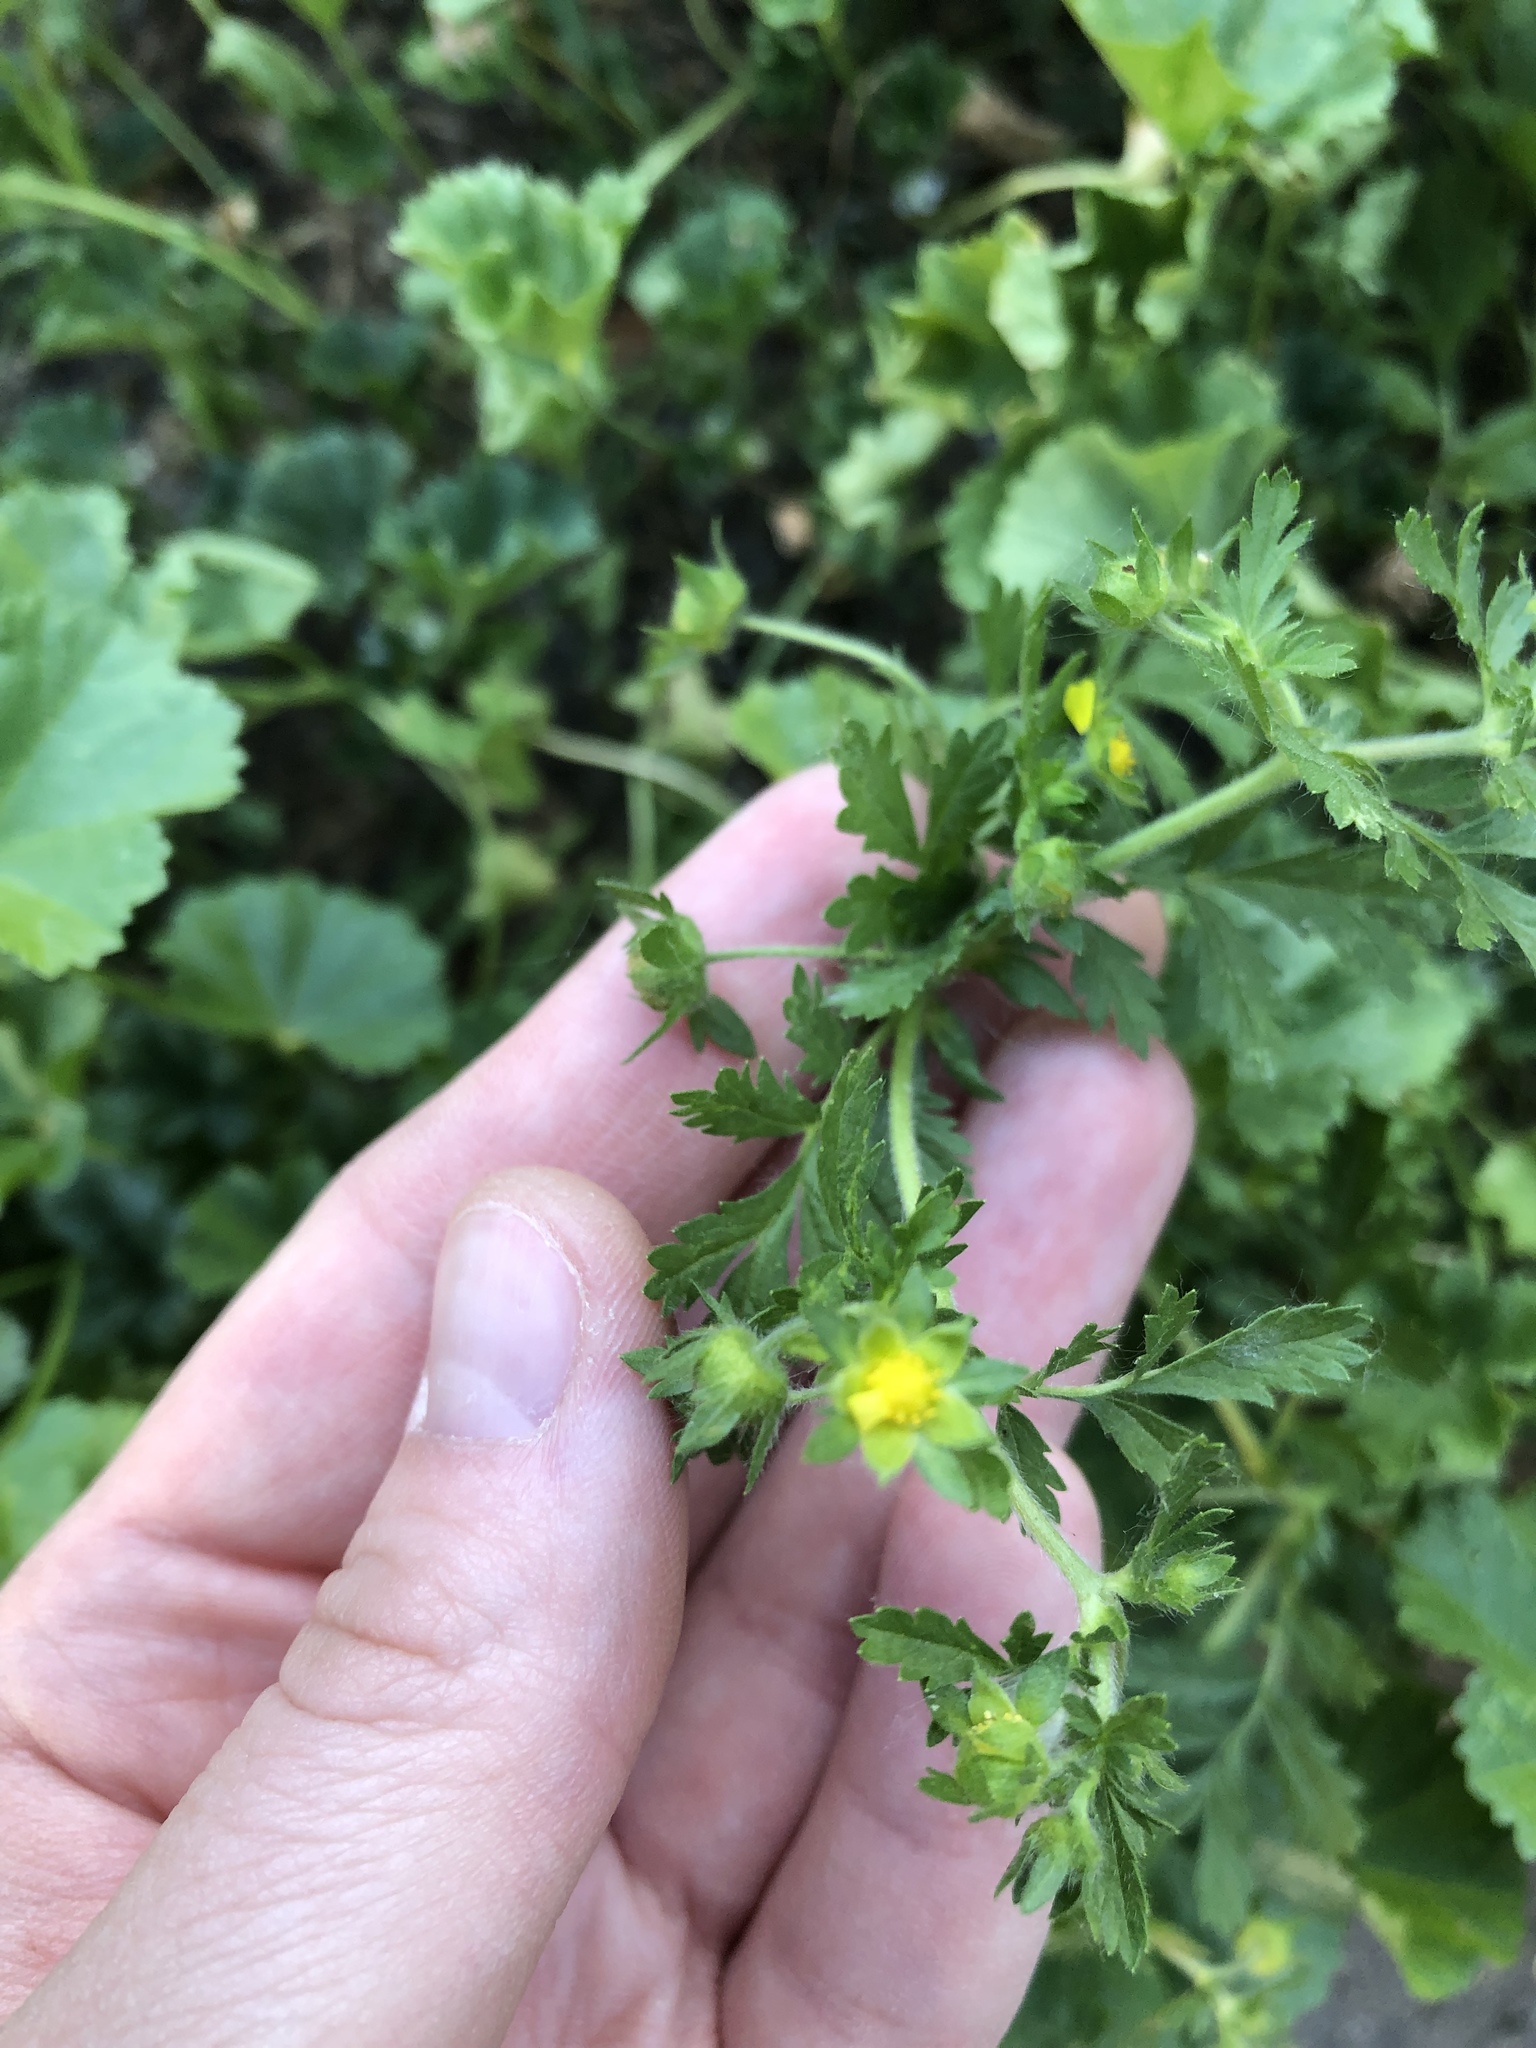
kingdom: Plantae
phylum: Tracheophyta
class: Magnoliopsida
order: Rosales
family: Rosaceae
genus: Potentilla
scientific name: Potentilla supina
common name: Prostrate cinquefoil
